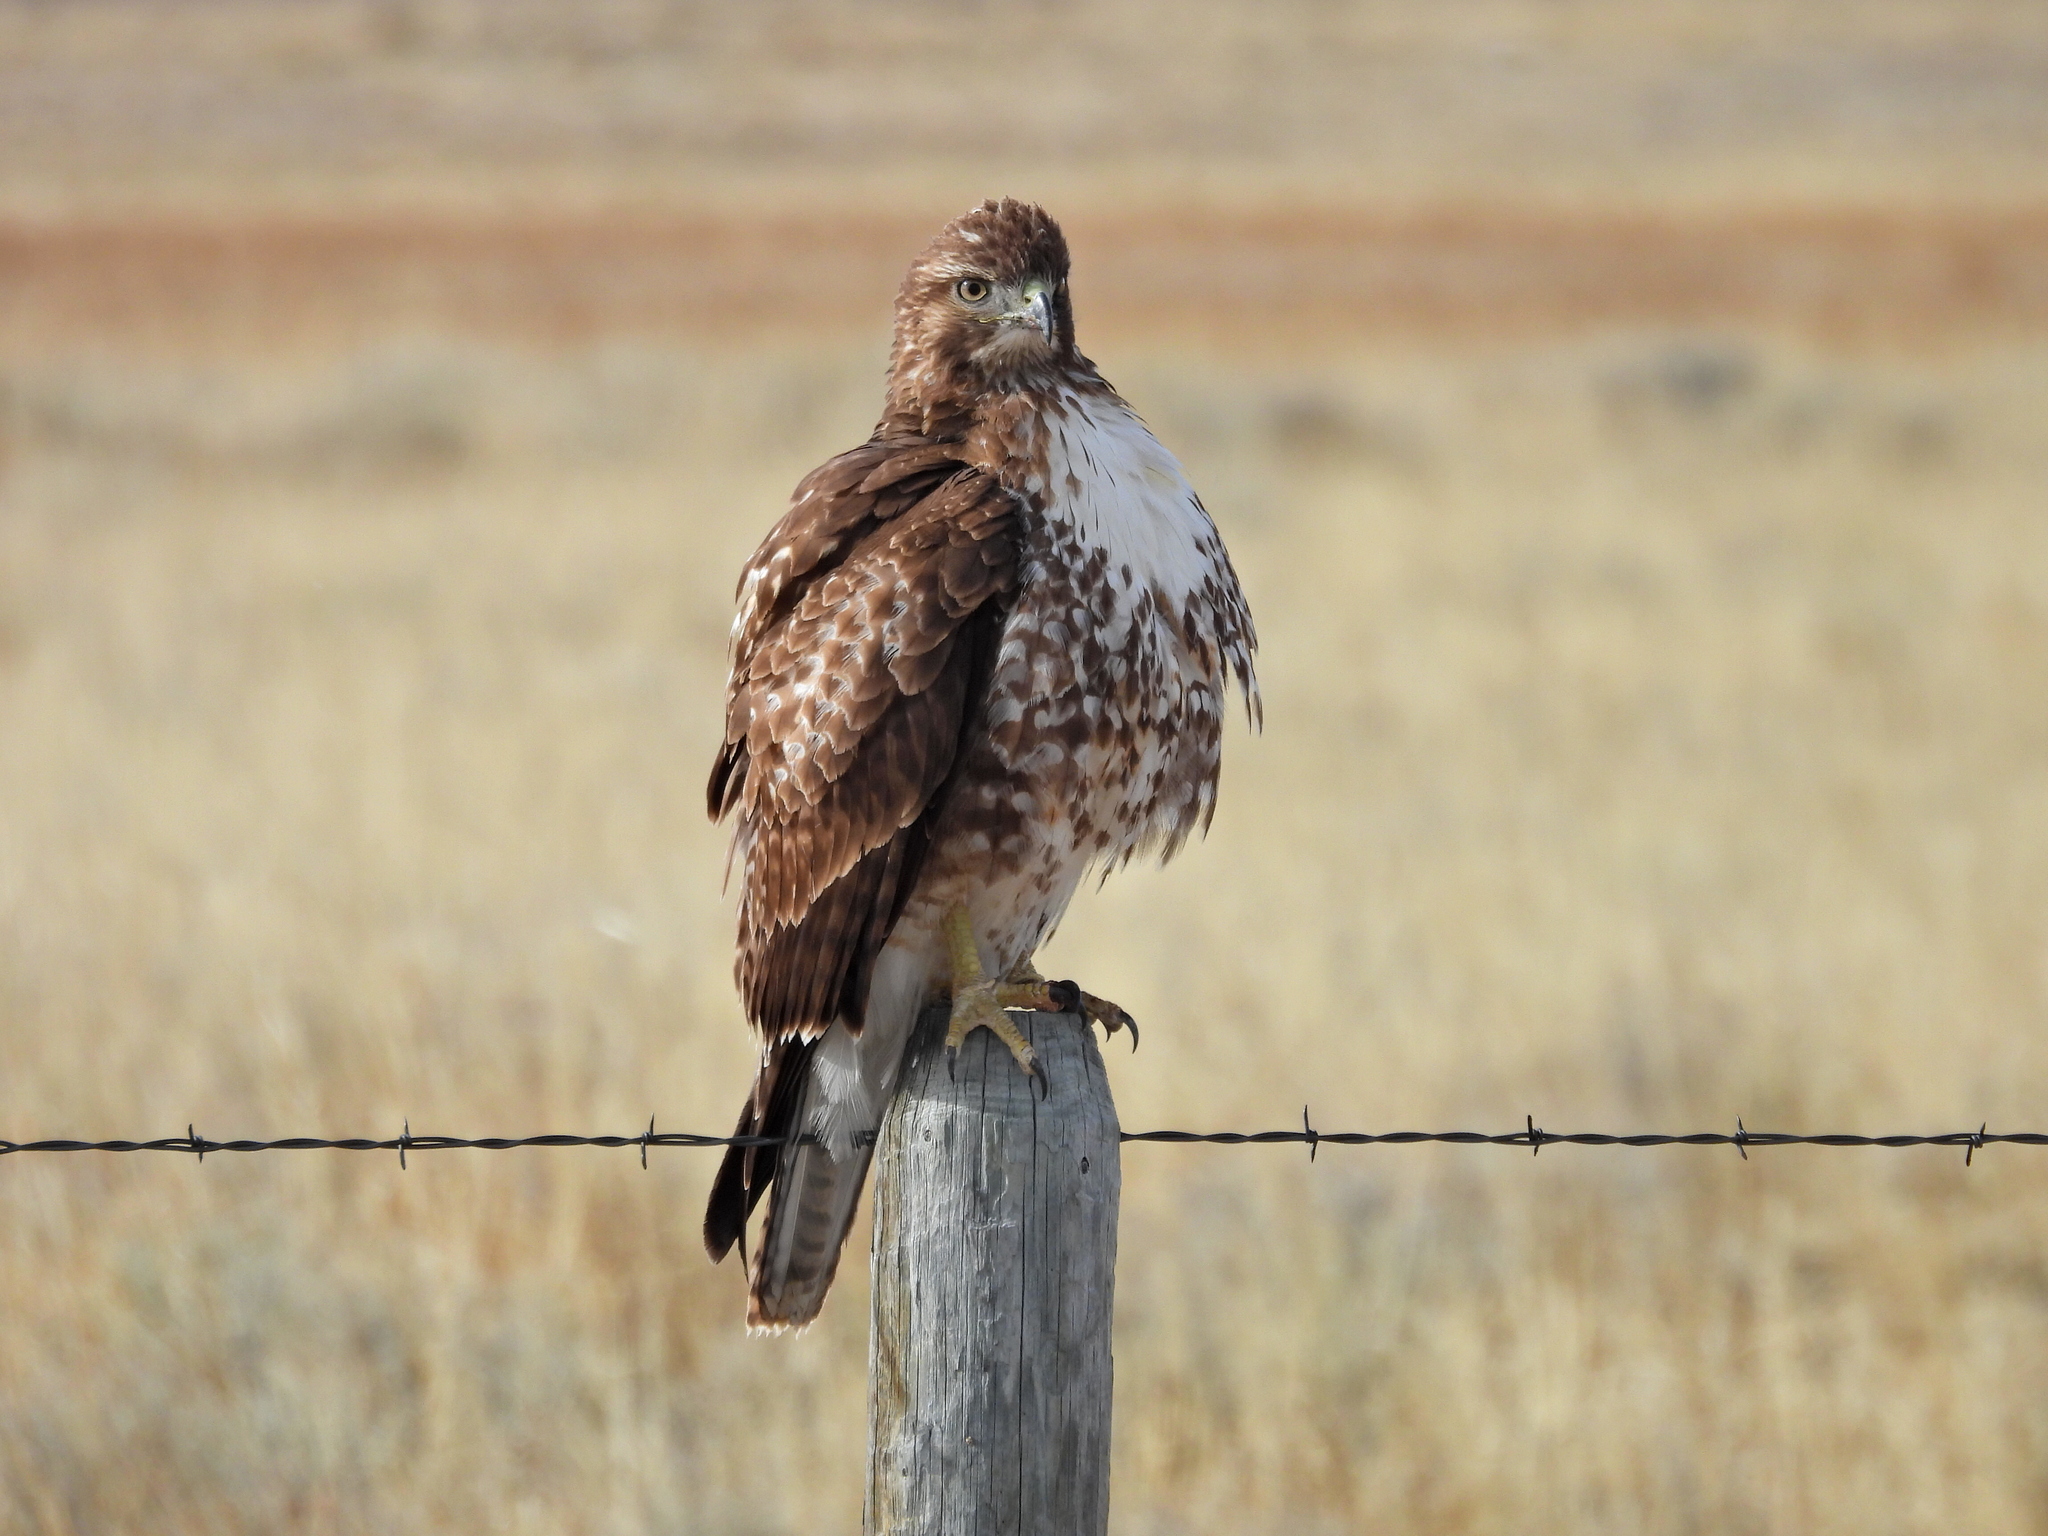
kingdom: Animalia
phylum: Chordata
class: Aves
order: Accipitriformes
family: Accipitridae
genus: Buteo
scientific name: Buteo jamaicensis
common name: Red-tailed hawk
